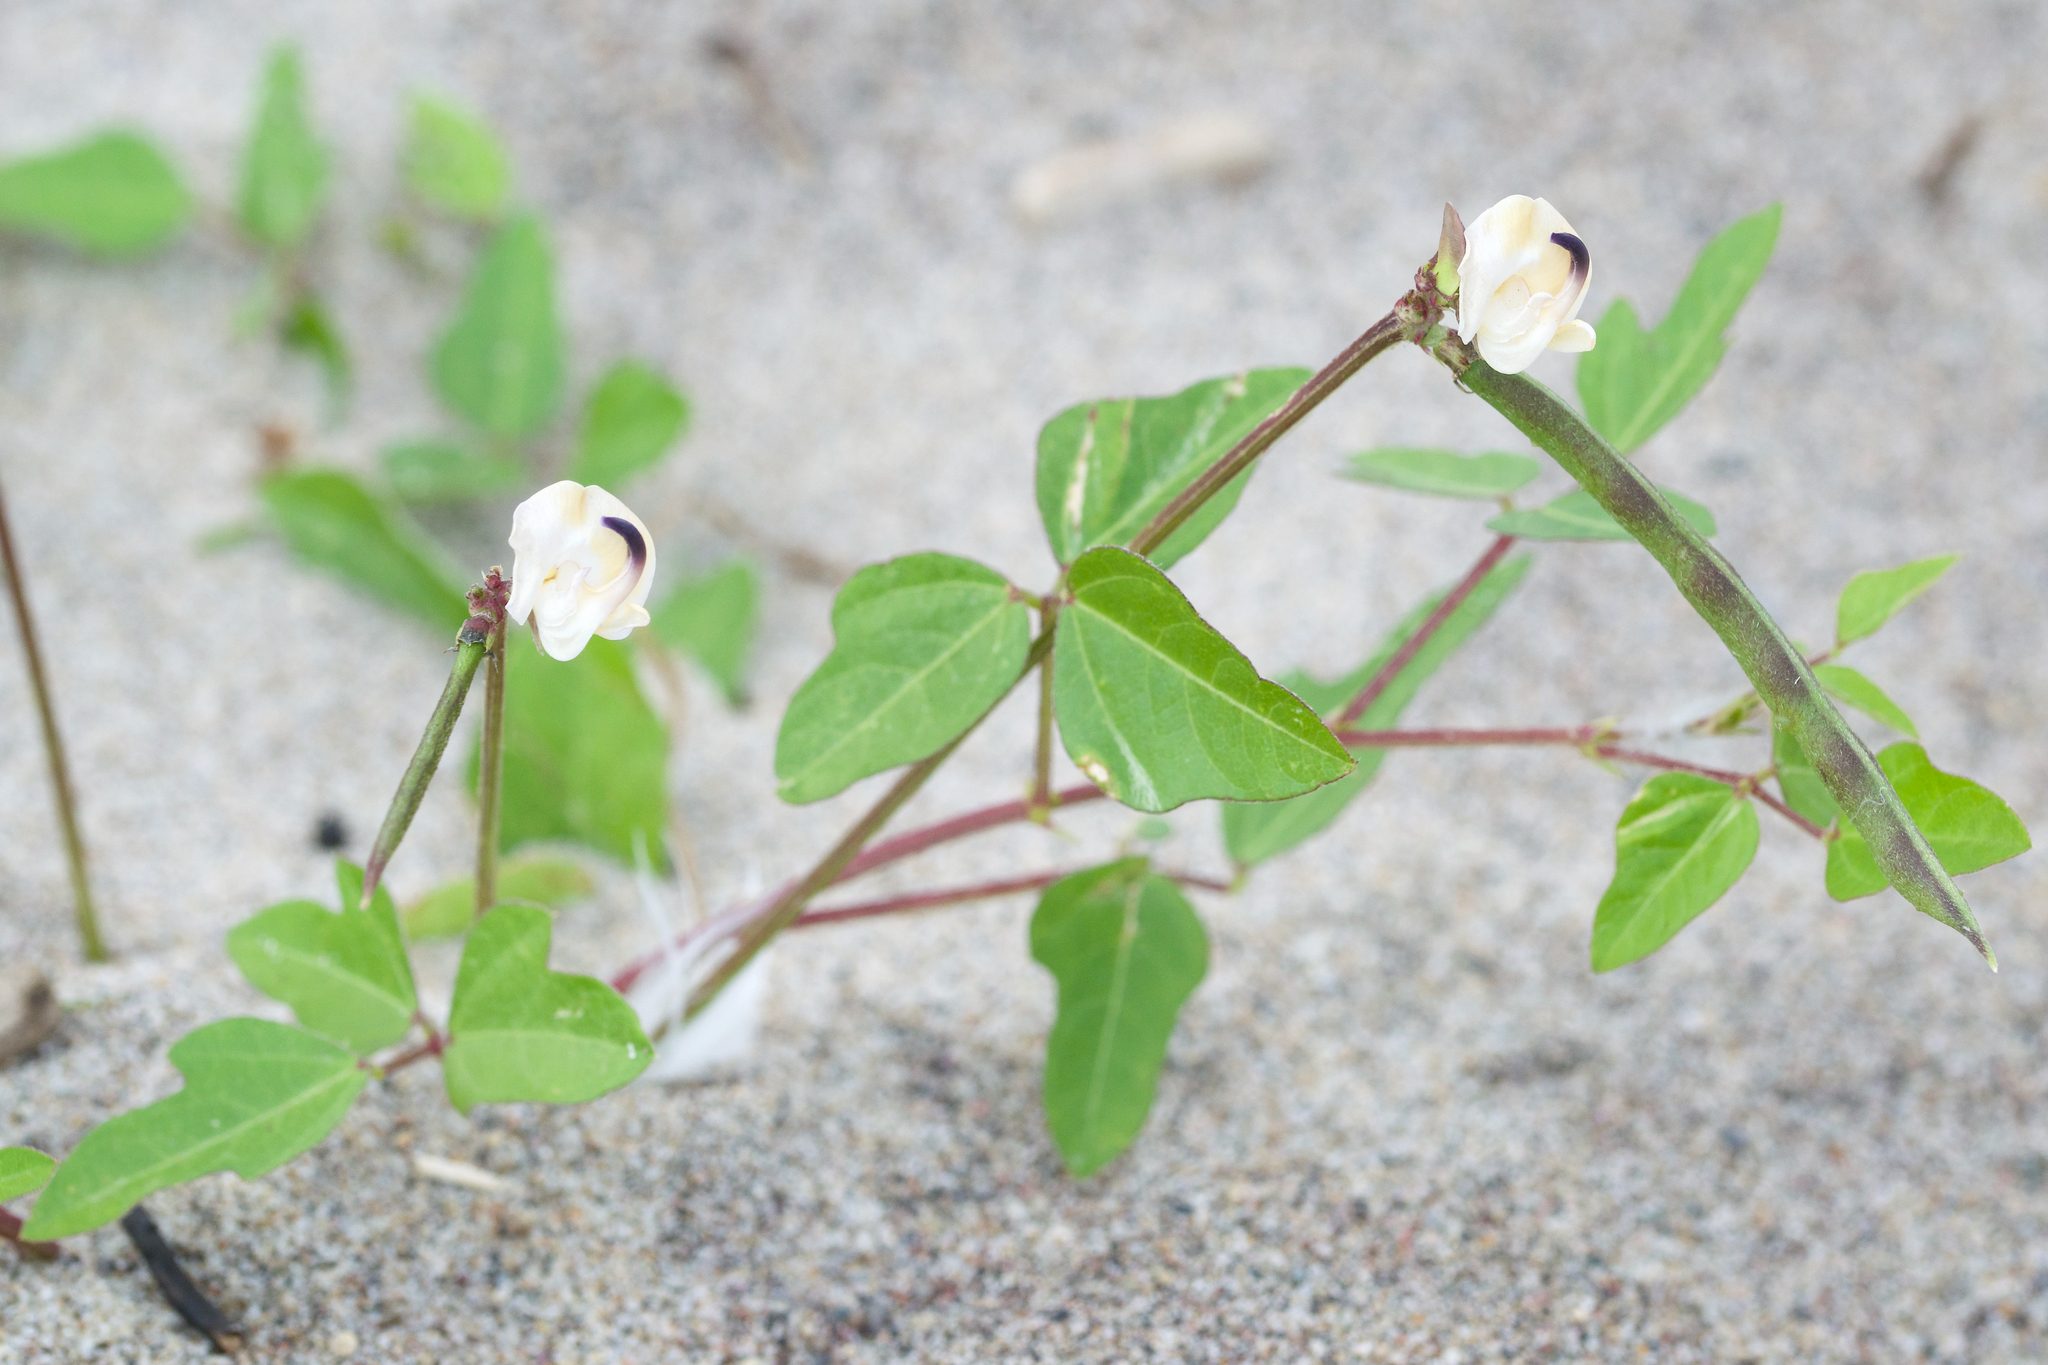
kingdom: Plantae
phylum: Tracheophyta
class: Magnoliopsida
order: Fabales
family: Fabaceae
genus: Strophostyles
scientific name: Strophostyles helvola
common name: Trailing wild bean
